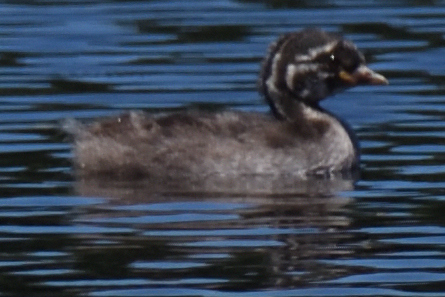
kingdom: Animalia
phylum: Chordata
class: Aves
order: Podicipediformes
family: Podicipedidae
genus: Tachybaptus
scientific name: Tachybaptus ruficollis
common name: Little grebe
